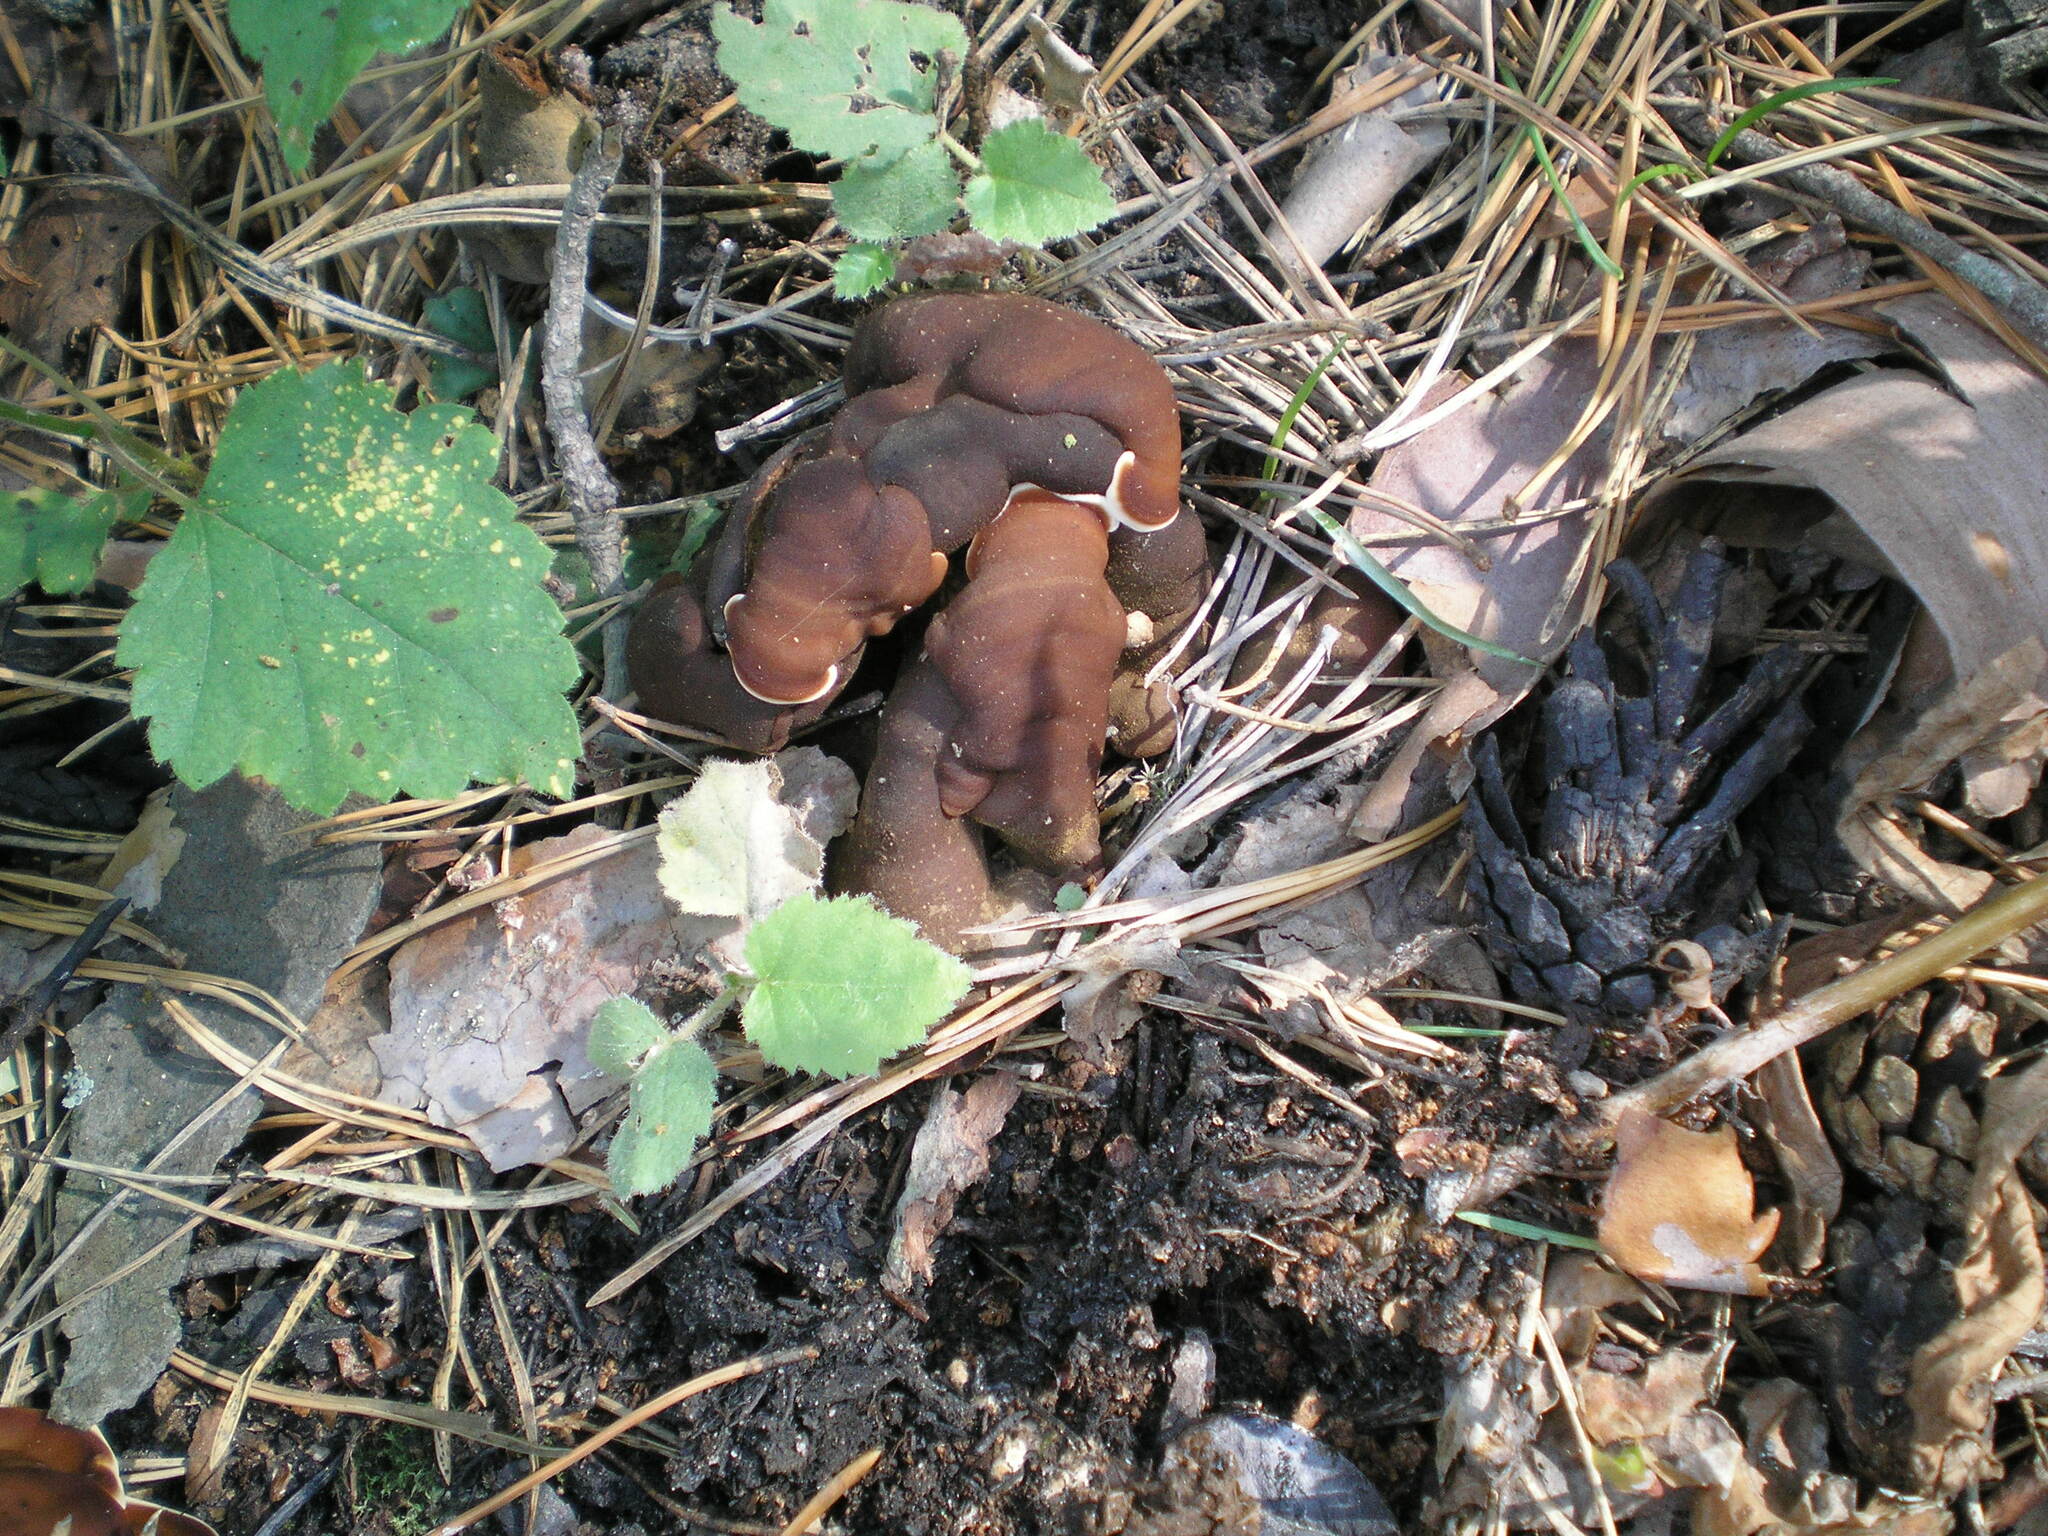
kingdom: Fungi
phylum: Ascomycota
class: Pezizomycetes
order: Pezizales
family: Rhizinaceae
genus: Rhizina
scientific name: Rhizina undulata
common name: Pine firefungus
